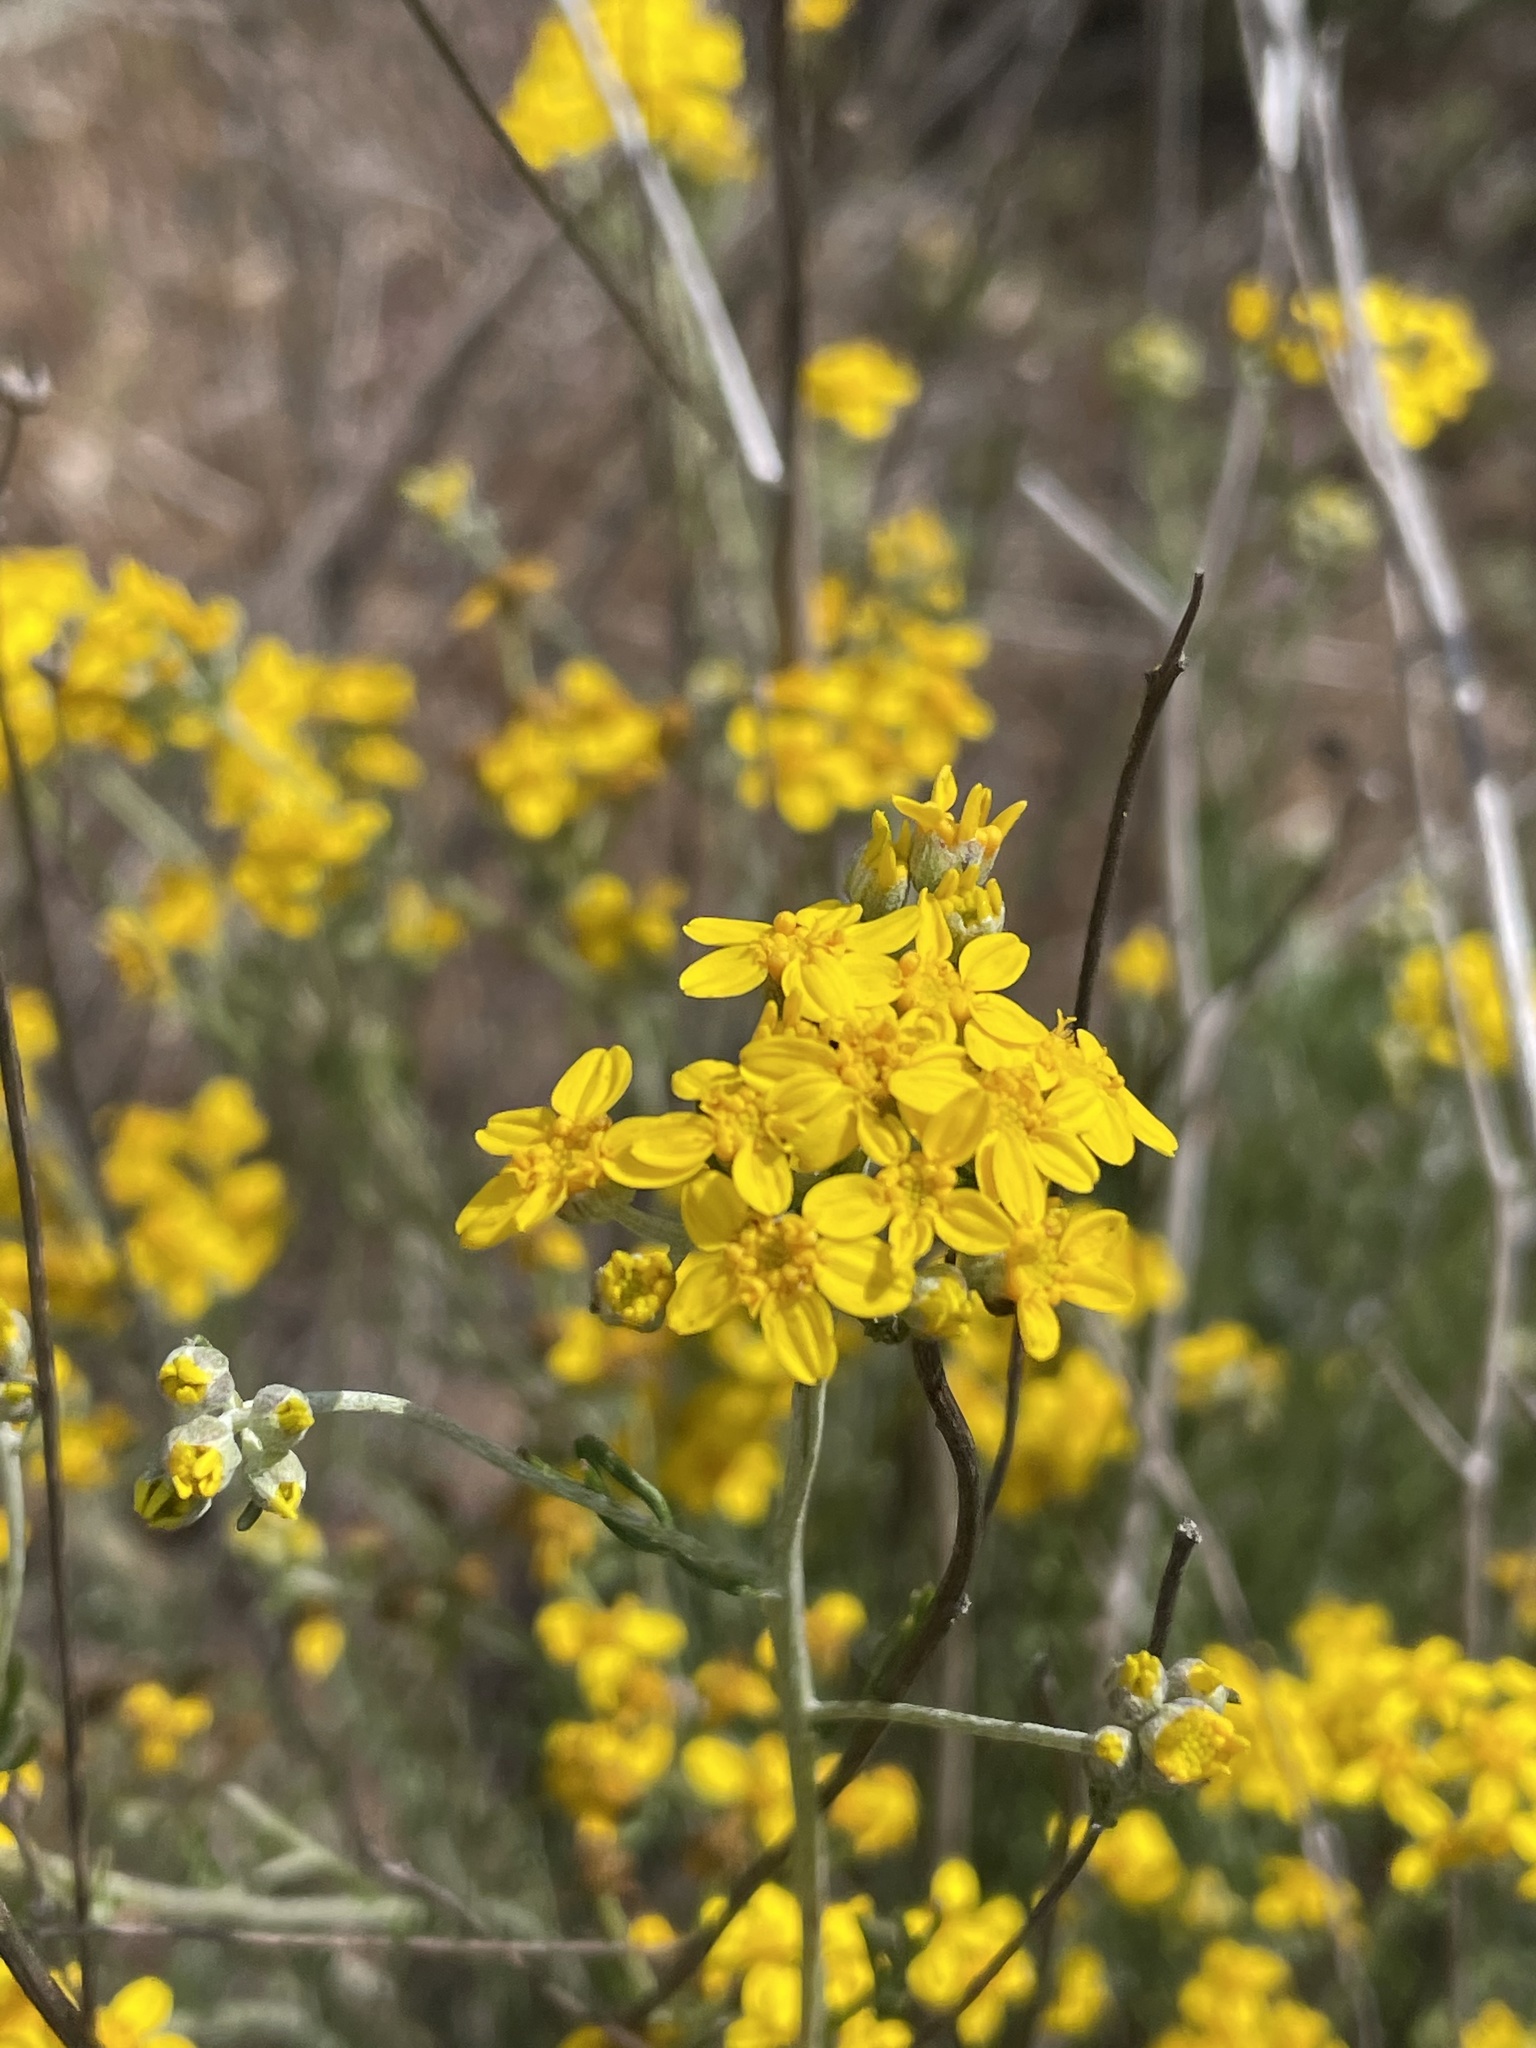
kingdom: Plantae
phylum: Tracheophyta
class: Magnoliopsida
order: Asterales
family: Asteraceae
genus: Eriophyllum
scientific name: Eriophyllum confertiflorum
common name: Golden-yarrow
